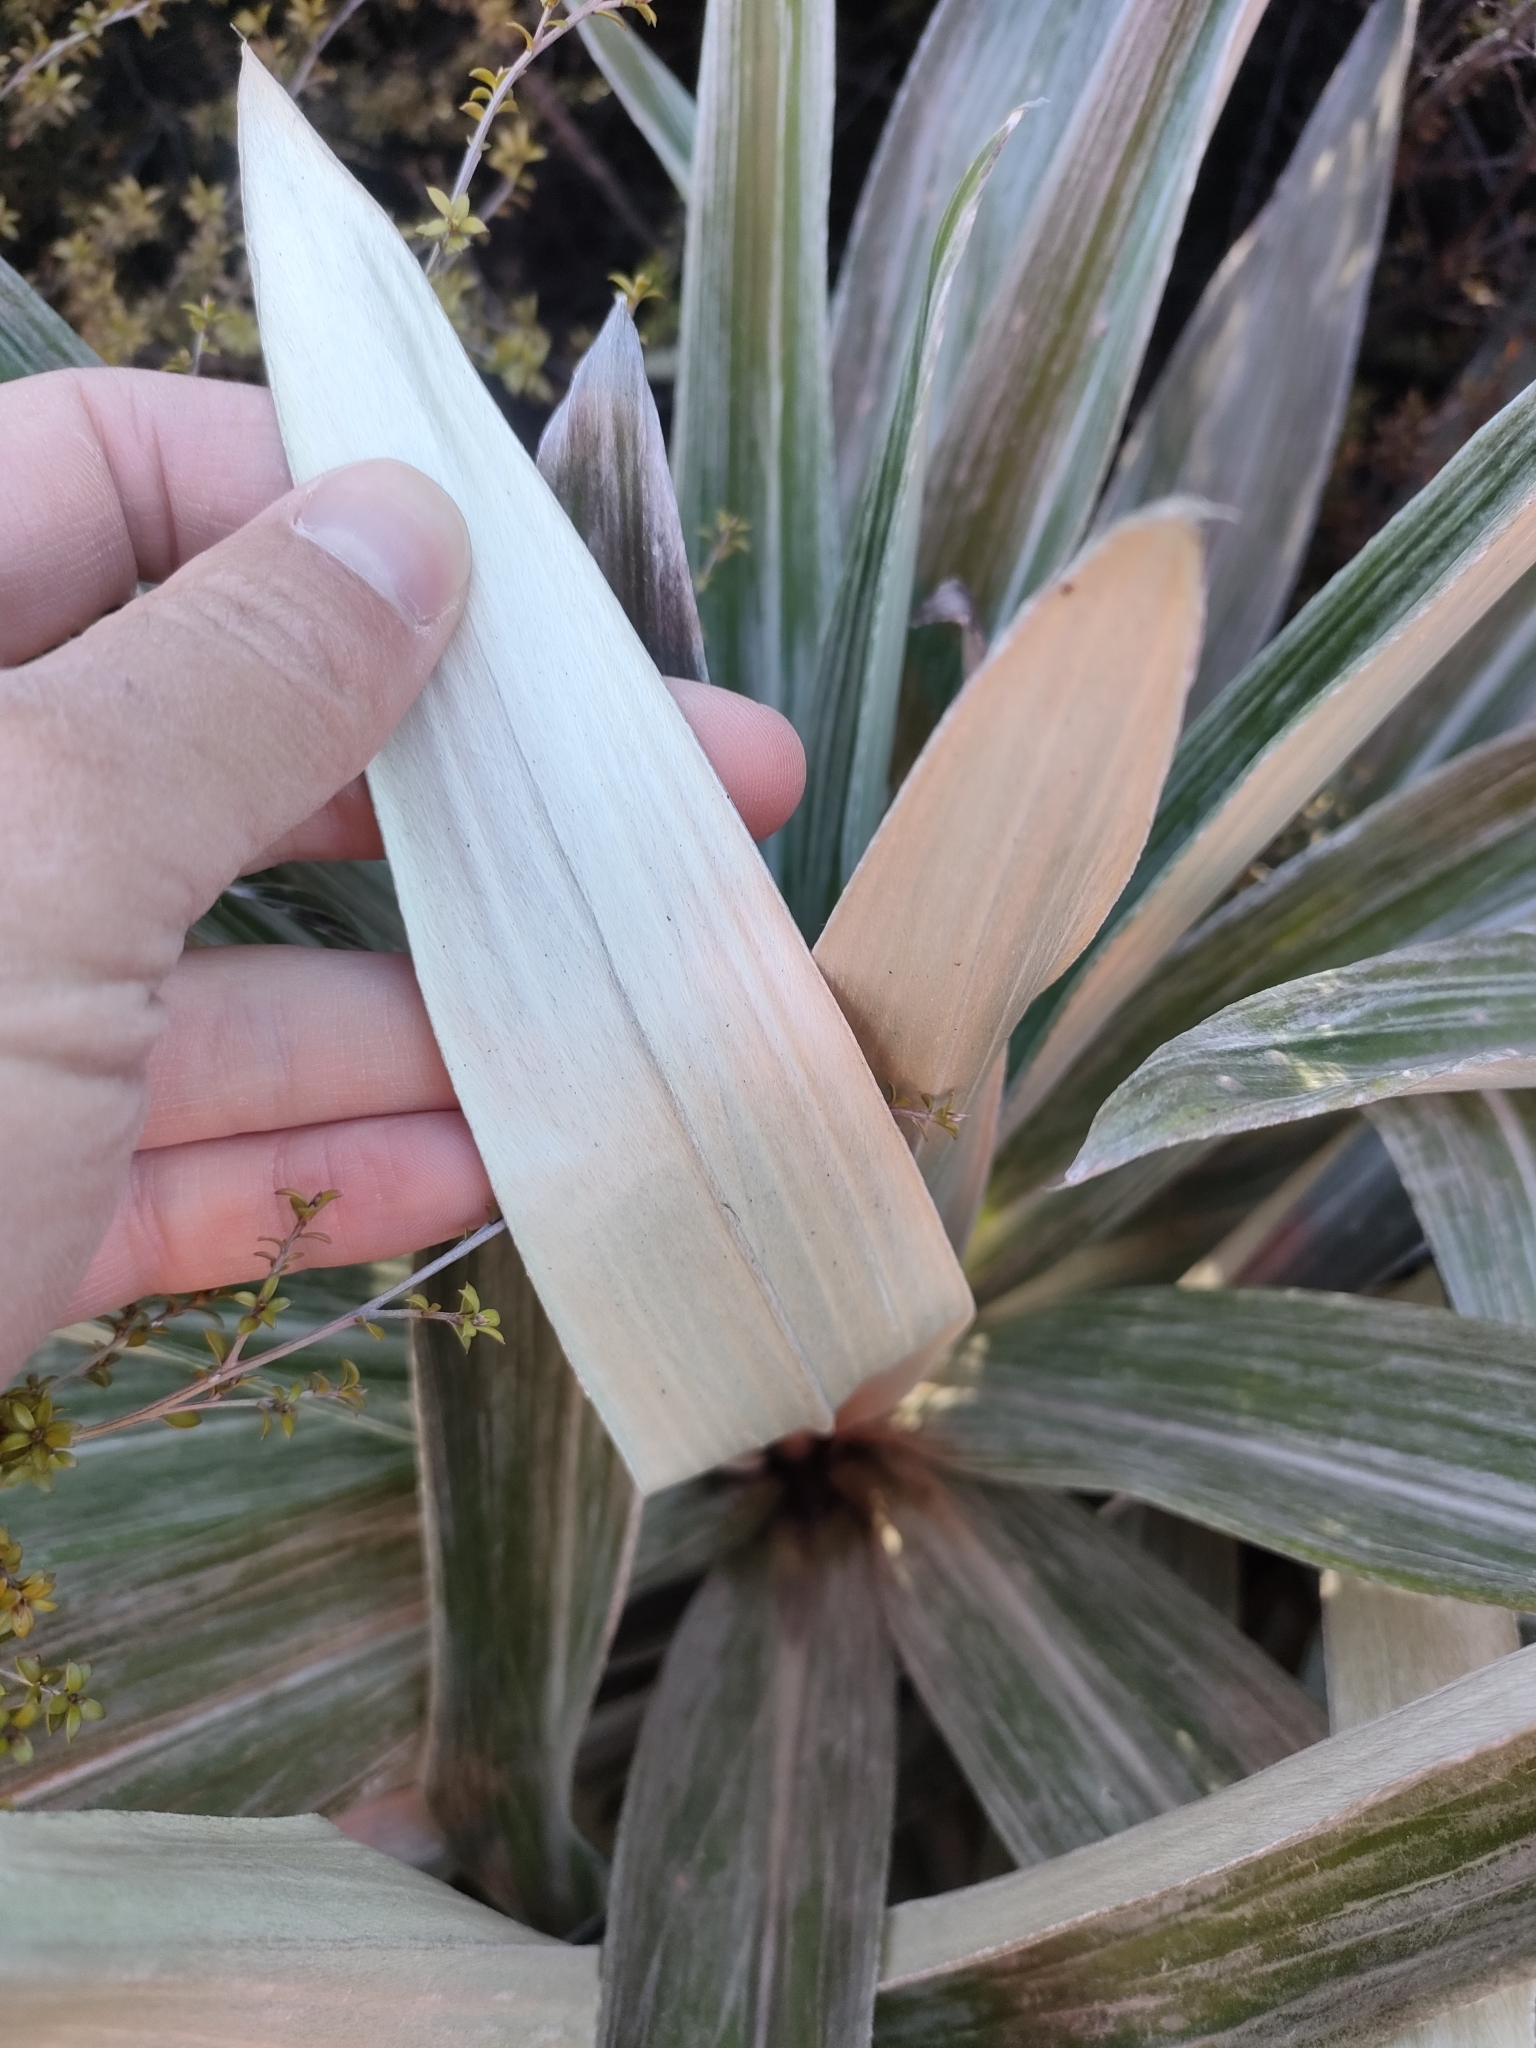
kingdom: Plantae
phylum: Tracheophyta
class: Magnoliopsida
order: Asterales
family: Asteraceae
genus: Celmisia
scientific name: Celmisia semicordata
